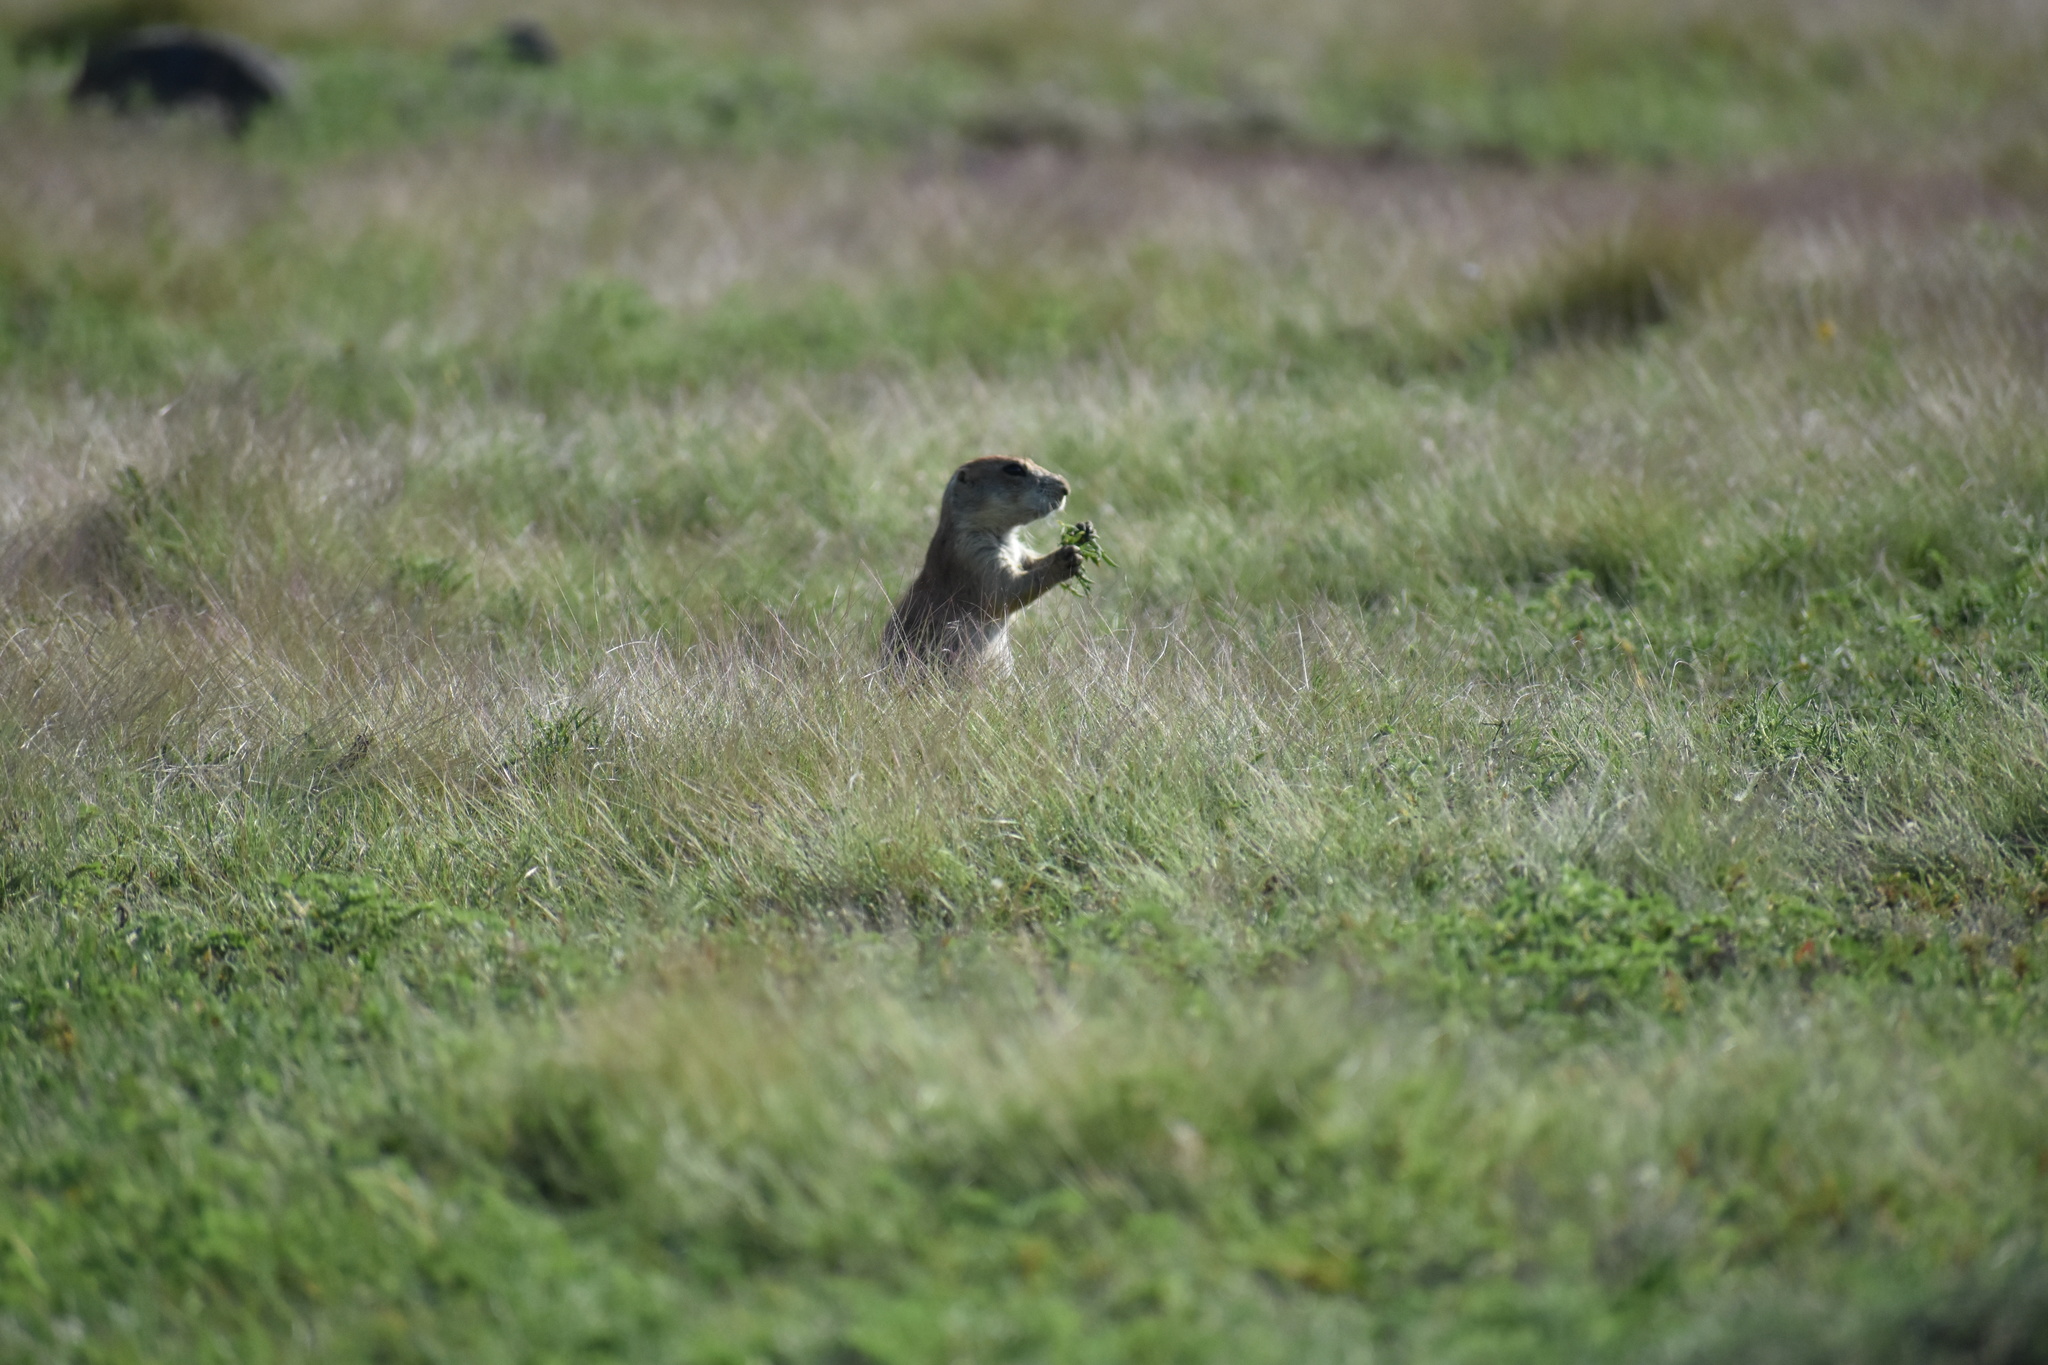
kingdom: Animalia
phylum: Chordata
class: Mammalia
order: Rodentia
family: Sciuridae
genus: Cynomys
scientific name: Cynomys ludovicianus
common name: Black-tailed prairie dog
